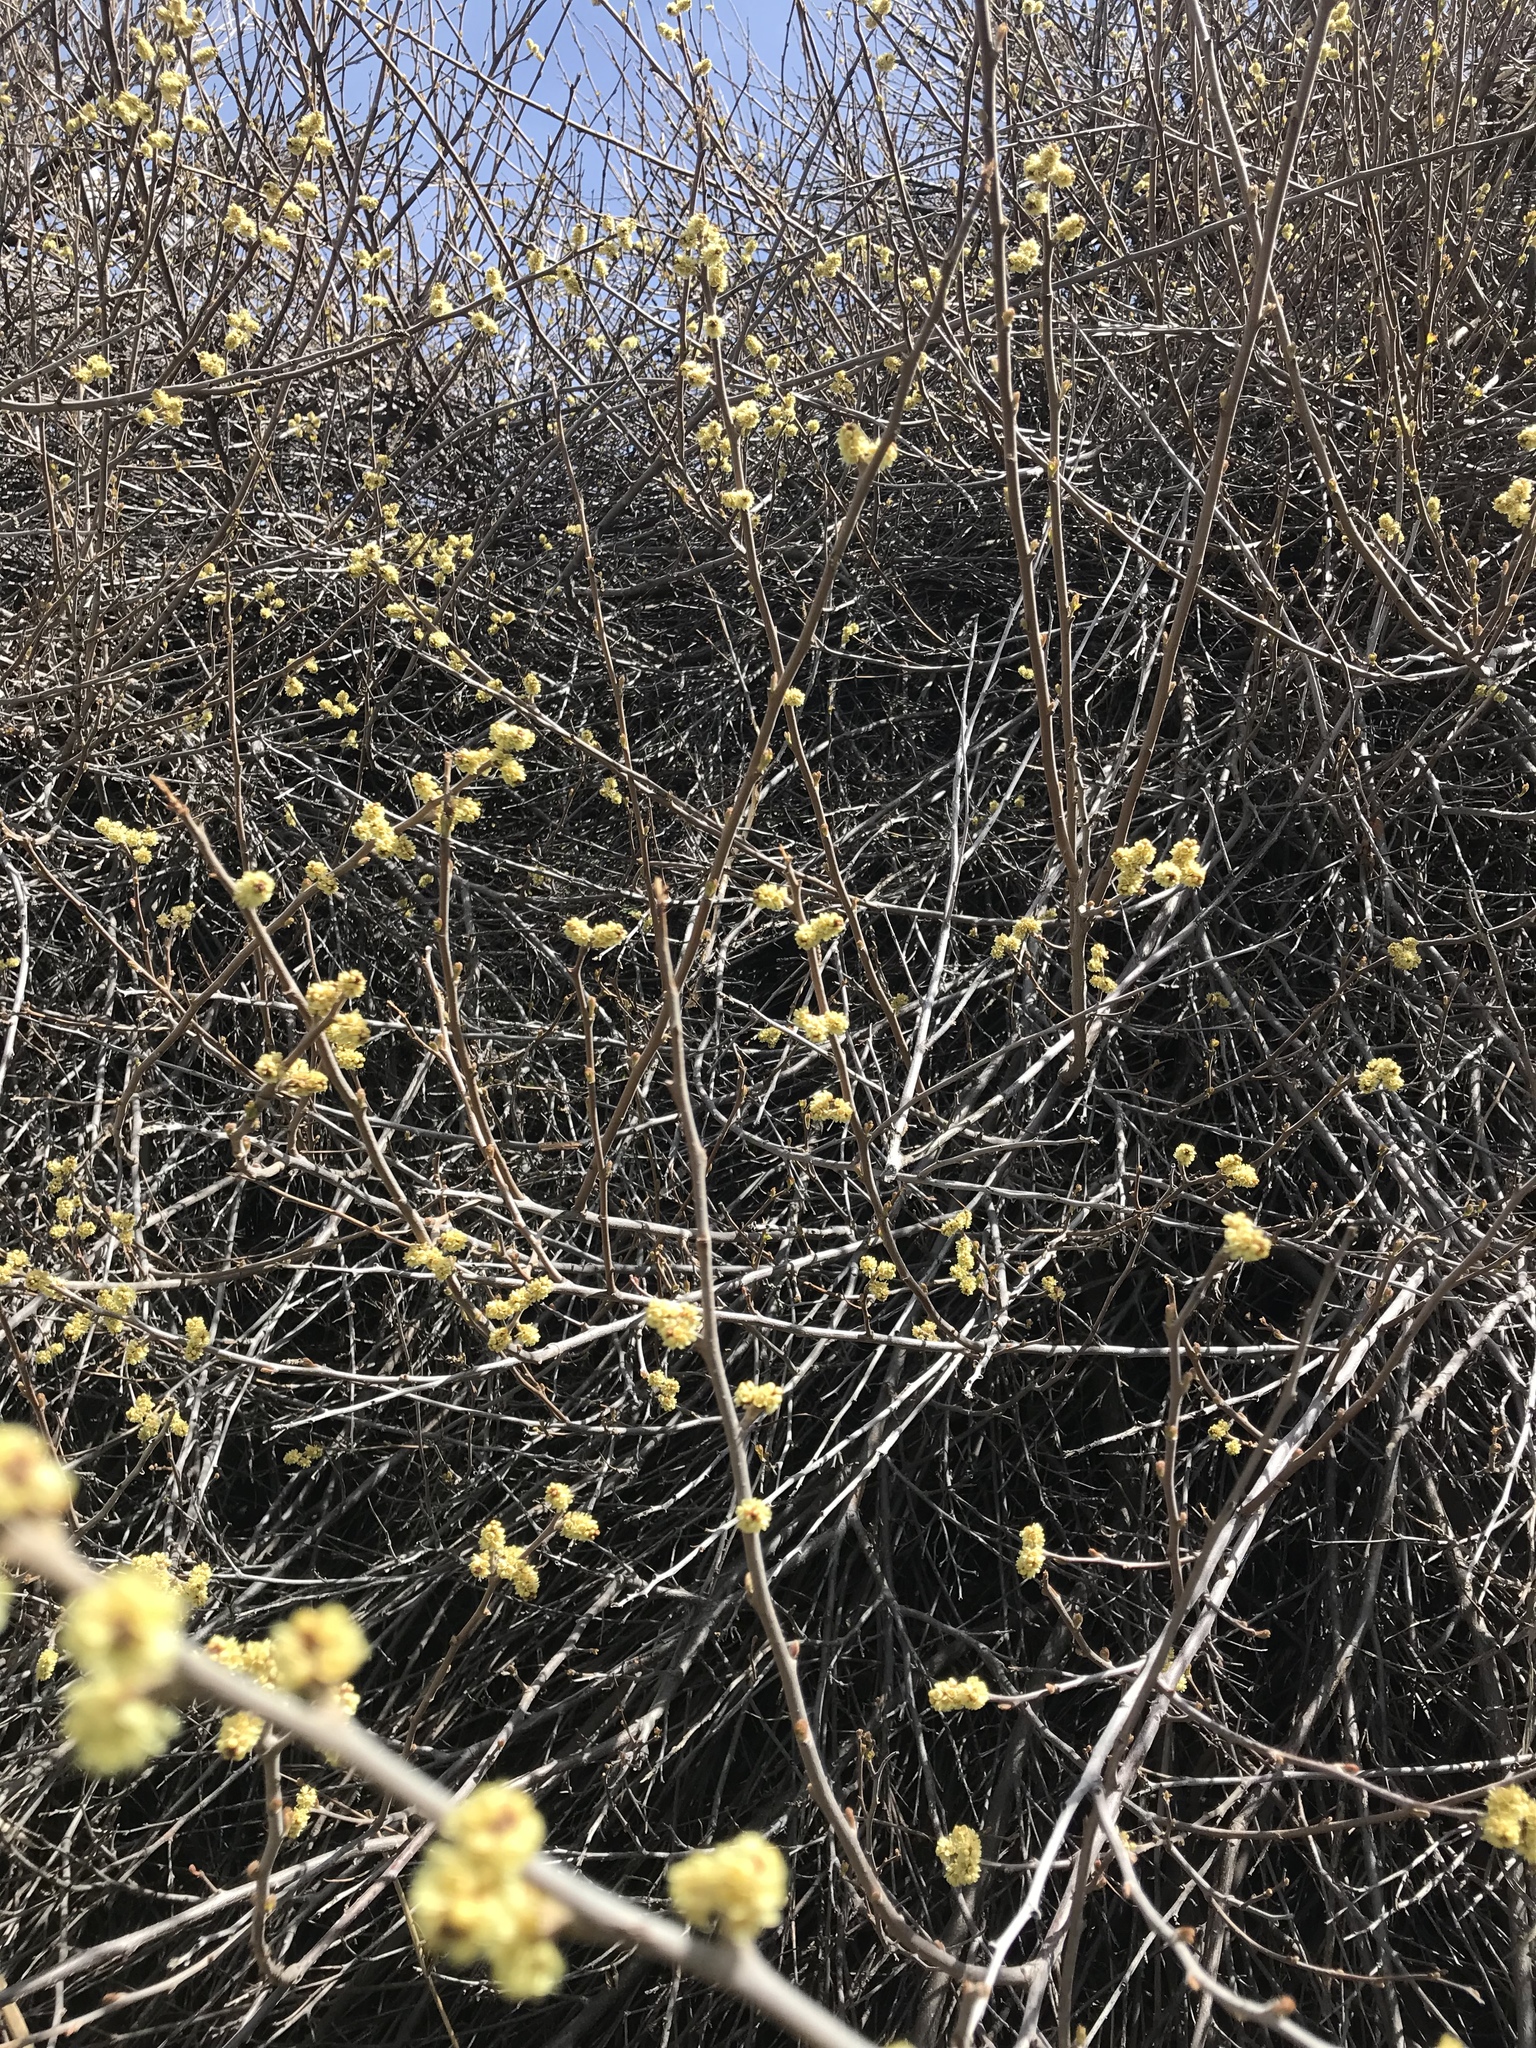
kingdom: Plantae
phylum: Tracheophyta
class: Magnoliopsida
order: Sapindales
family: Anacardiaceae
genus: Rhus
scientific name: Rhus aromatica
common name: Aromatic sumac
